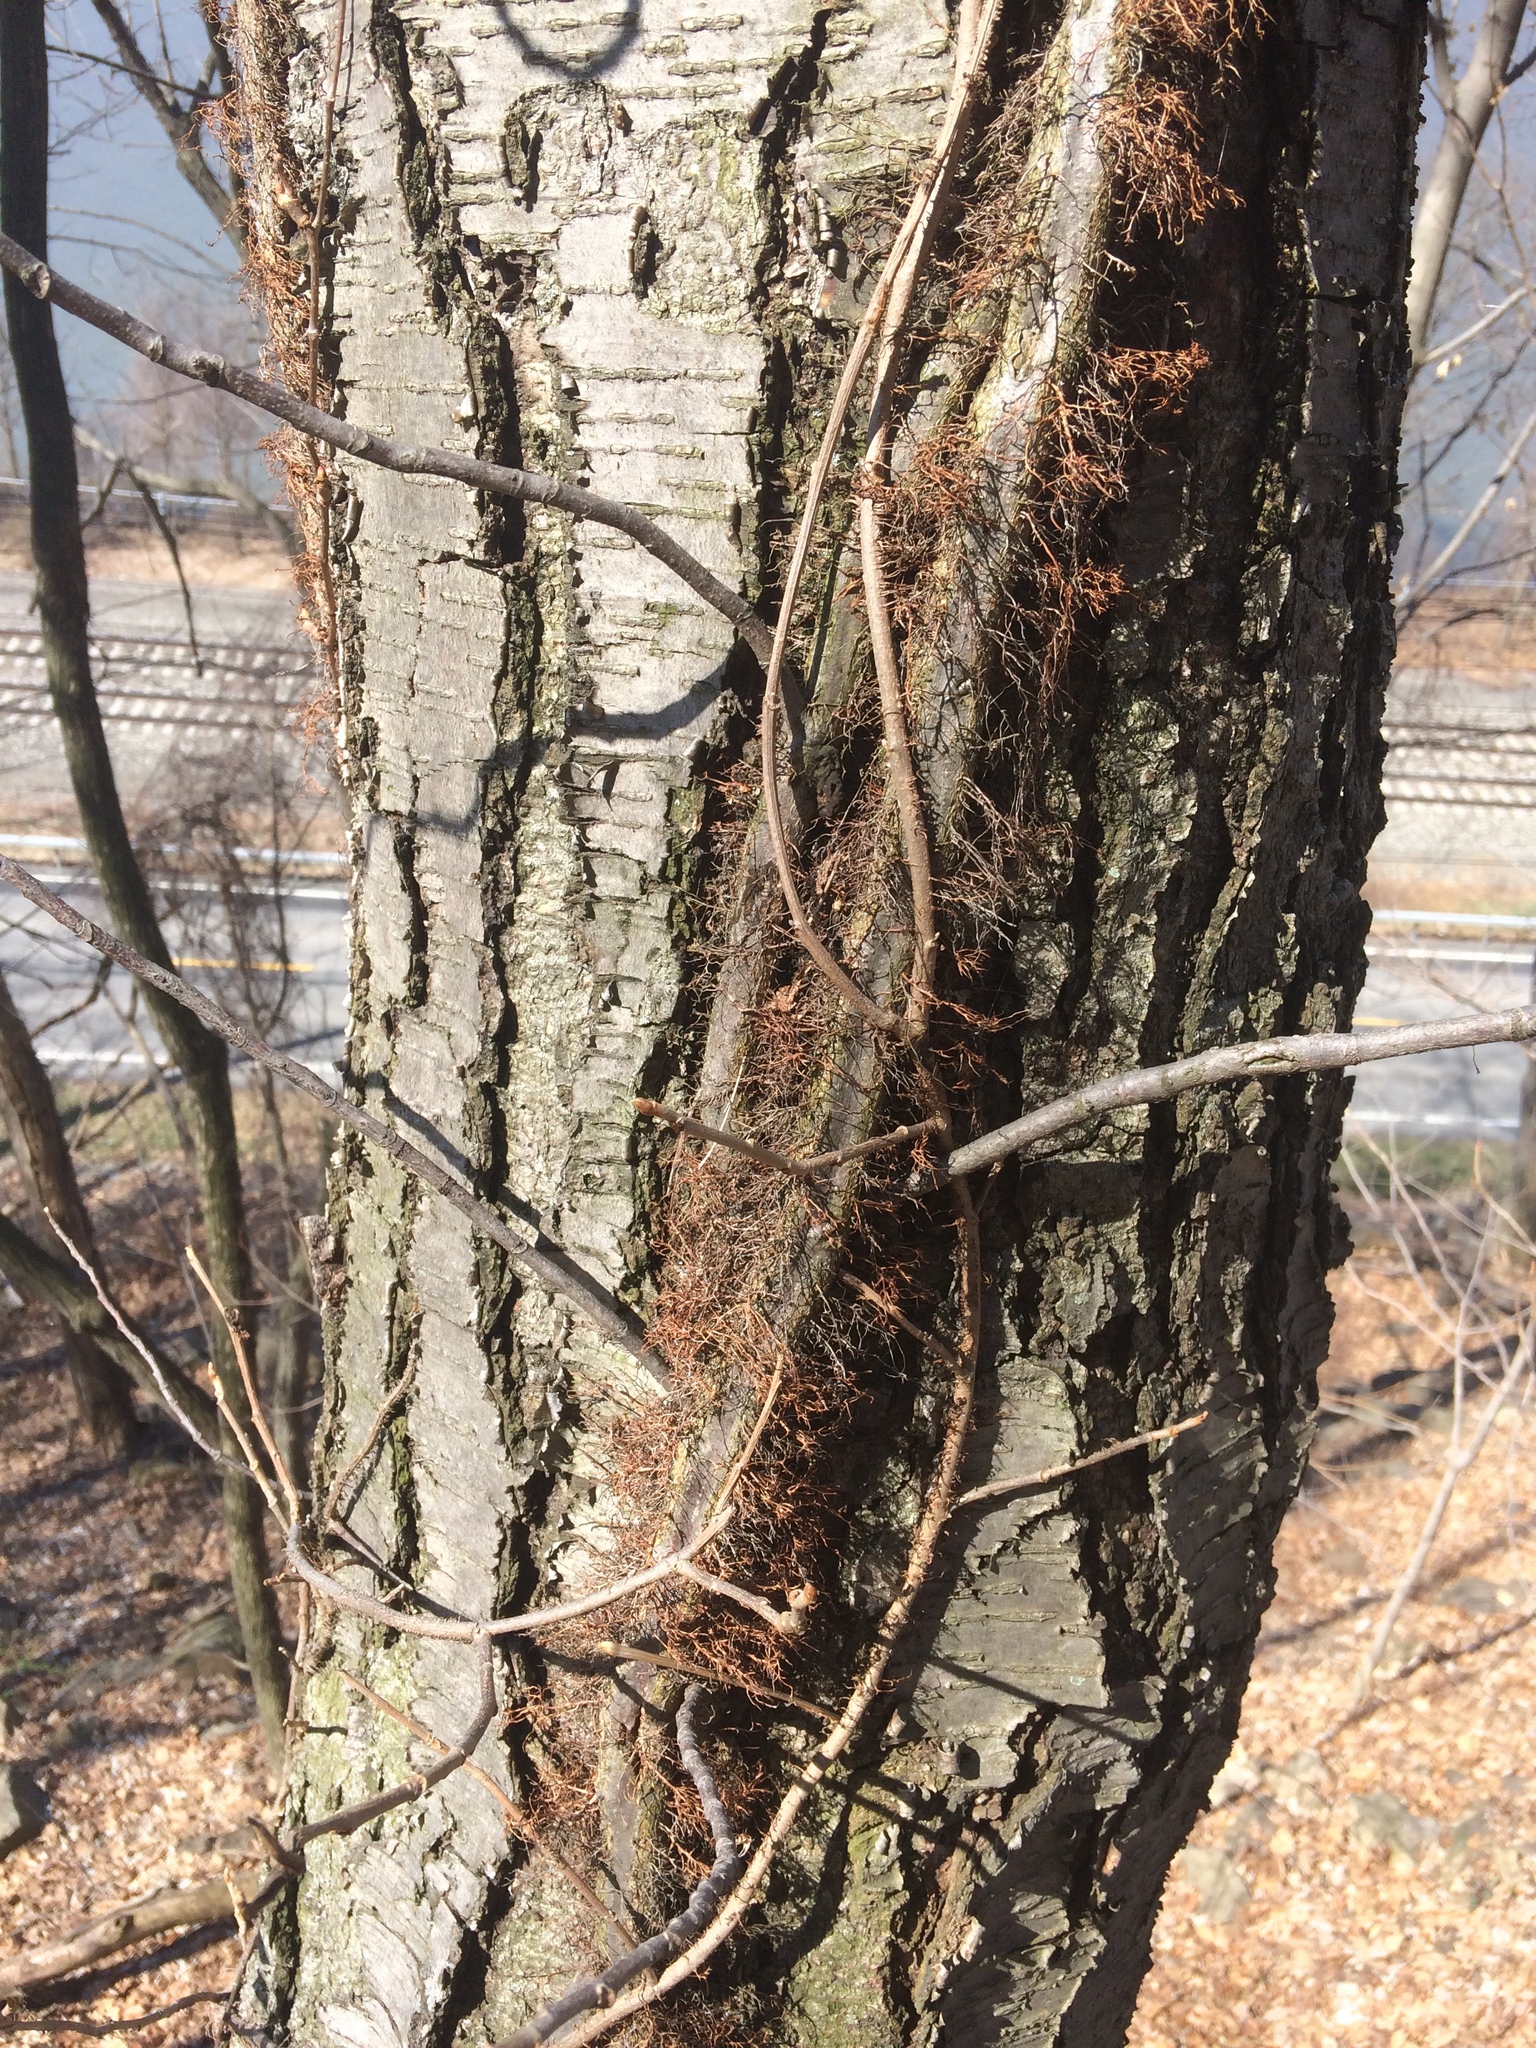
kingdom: Plantae
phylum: Tracheophyta
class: Magnoliopsida
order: Sapindales
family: Anacardiaceae
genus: Toxicodendron
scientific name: Toxicodendron radicans
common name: Poison ivy
